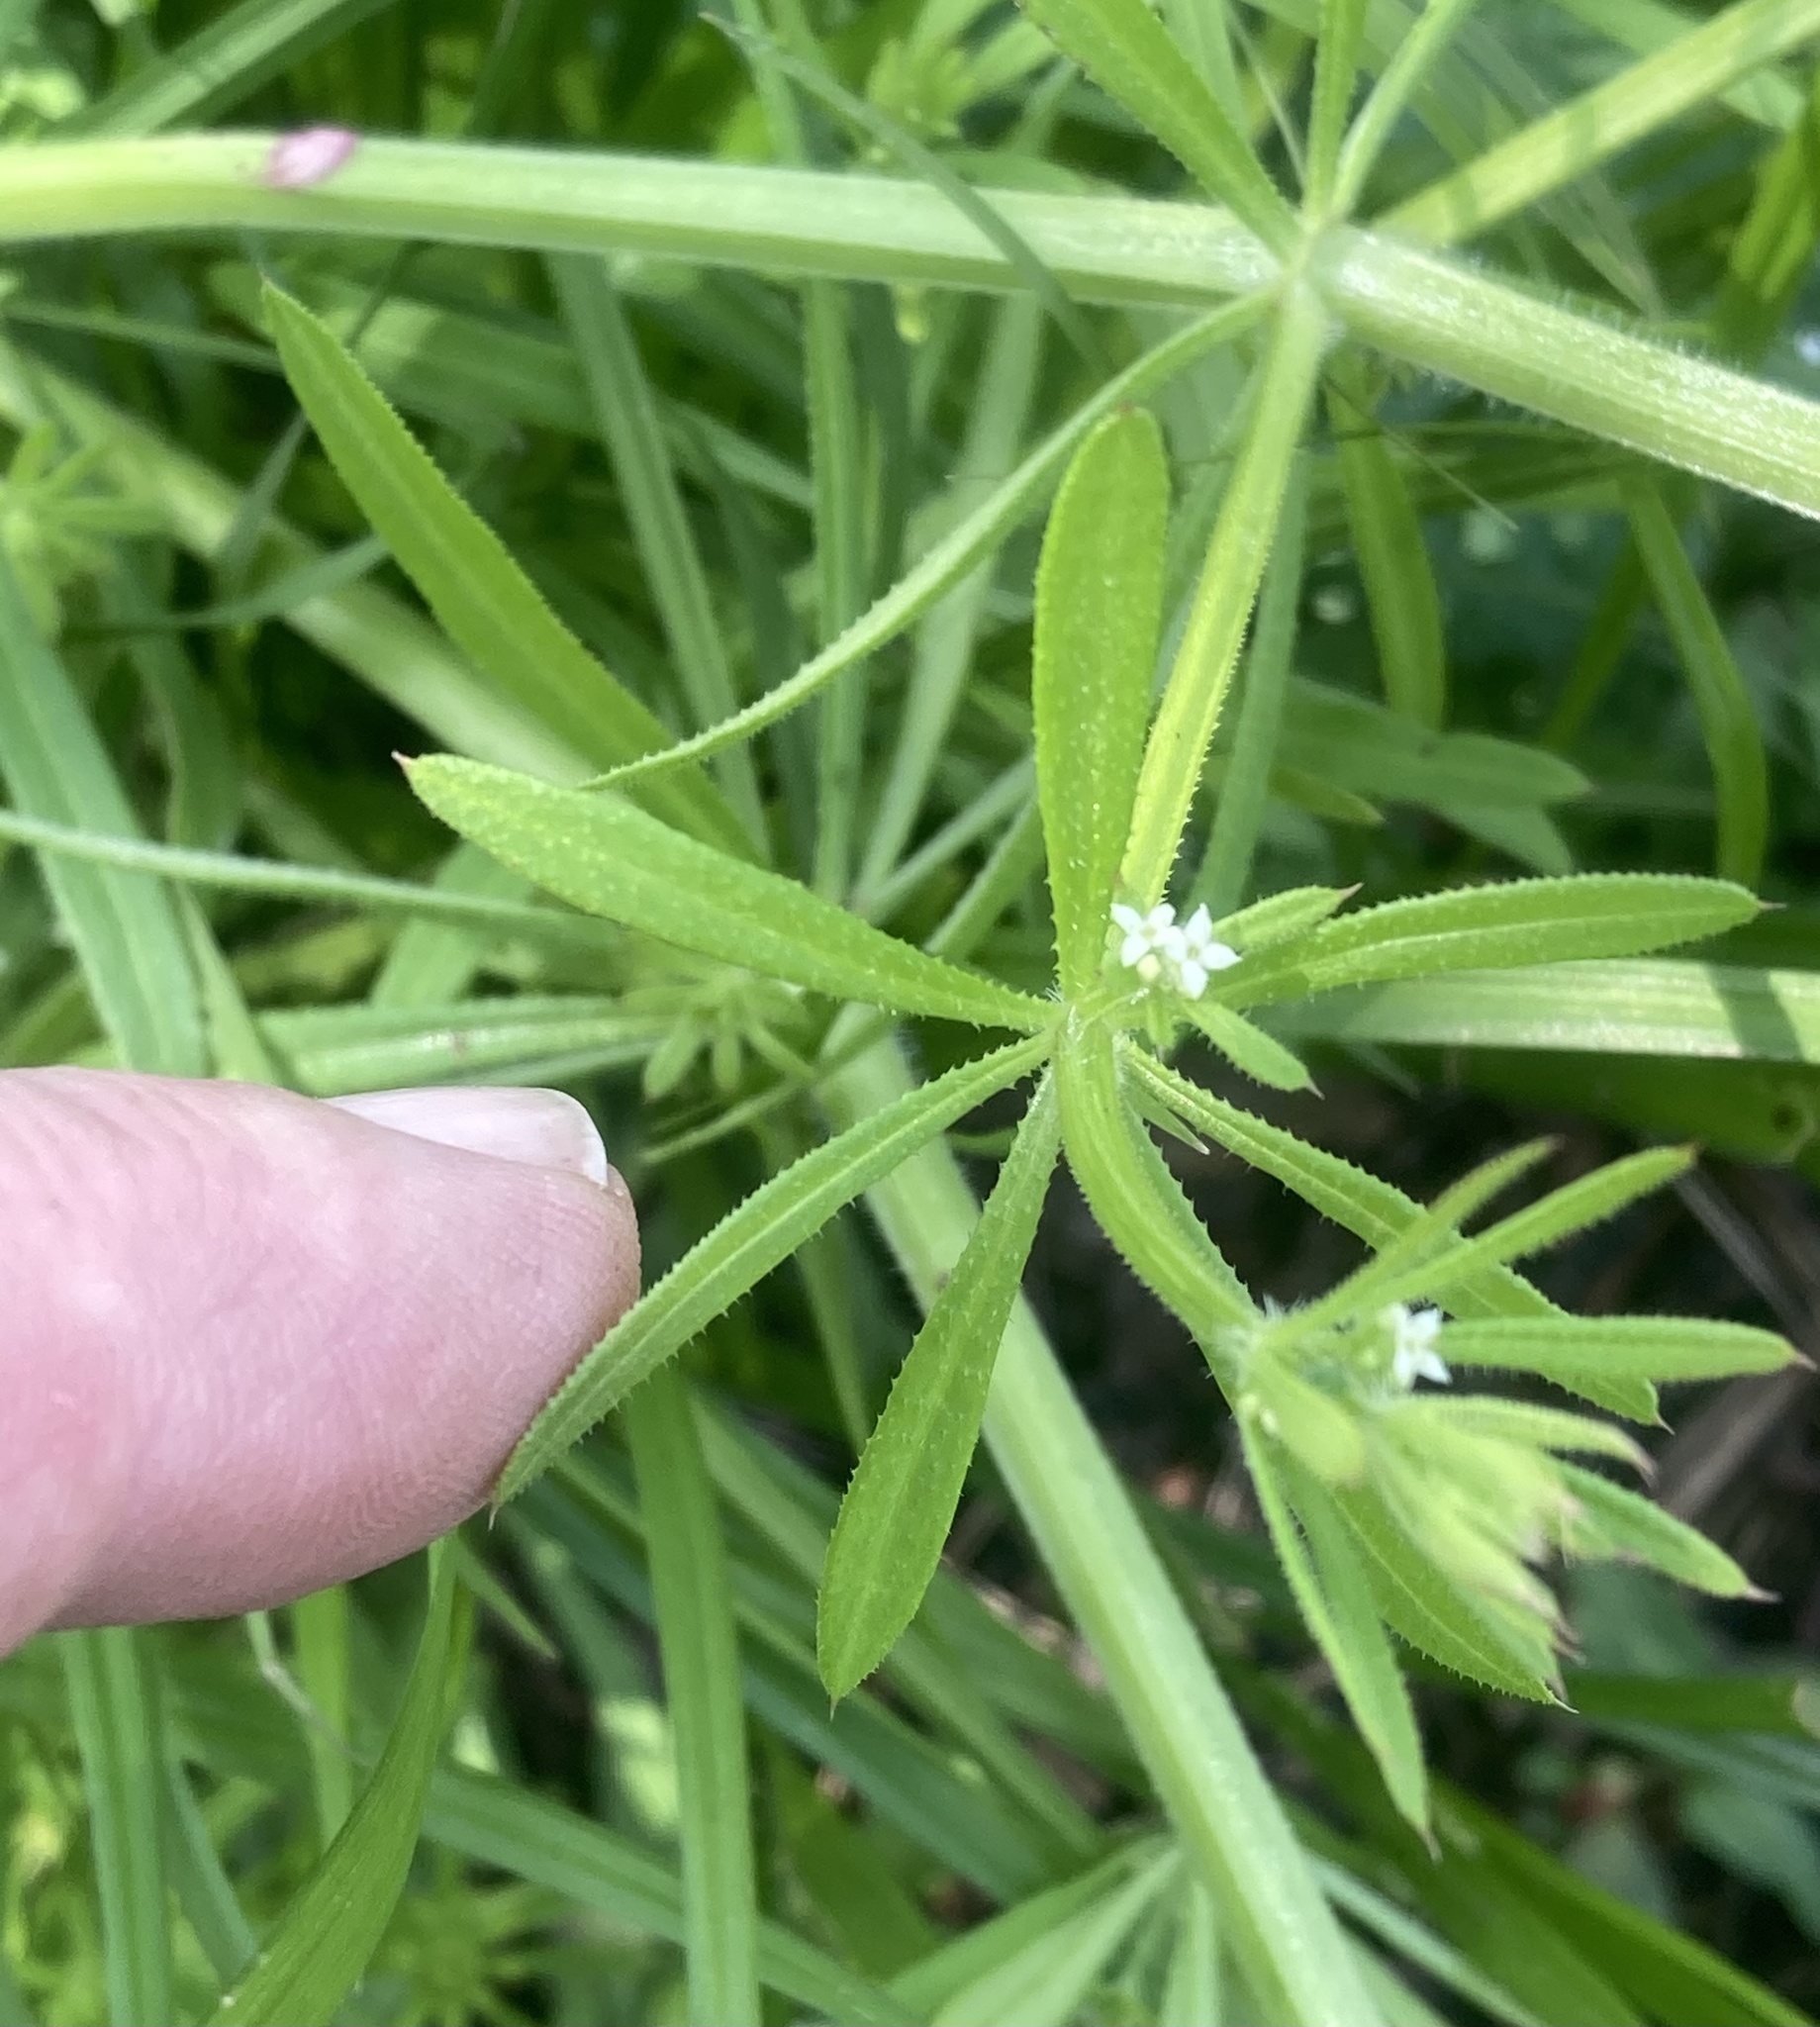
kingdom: Plantae
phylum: Tracheophyta
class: Magnoliopsida
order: Gentianales
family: Rubiaceae
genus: Galium
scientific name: Galium aparine
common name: Cleavers
